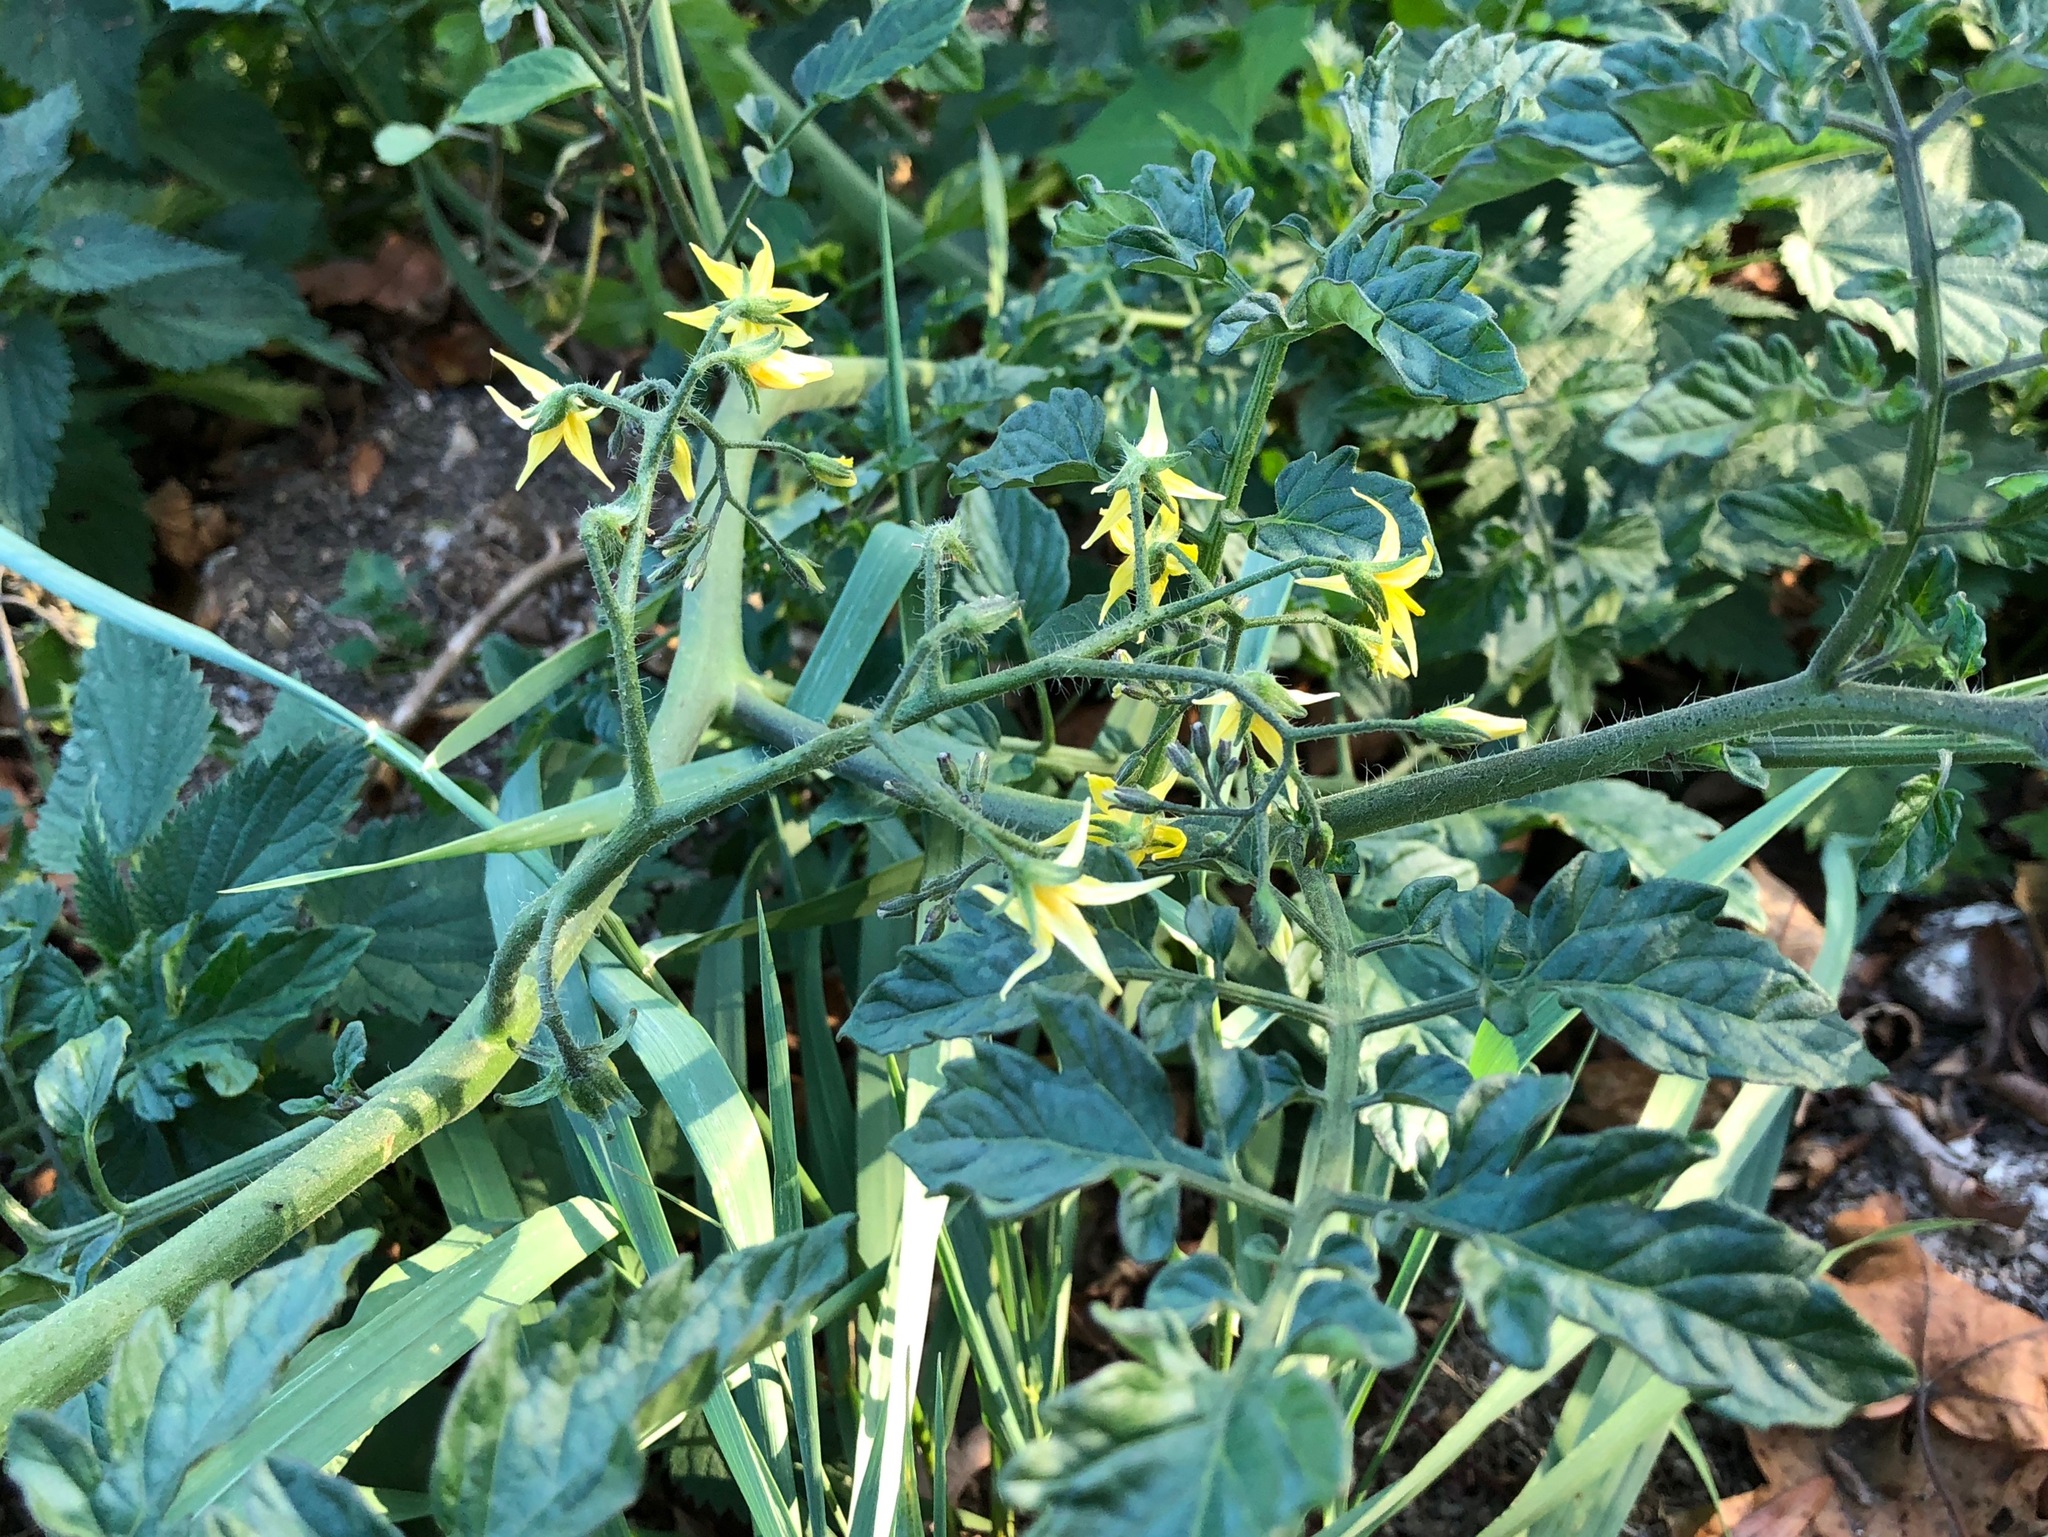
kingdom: Plantae
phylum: Tracheophyta
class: Magnoliopsida
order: Solanales
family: Solanaceae
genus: Solanum
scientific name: Solanum lycopersicum
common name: Garden tomato
